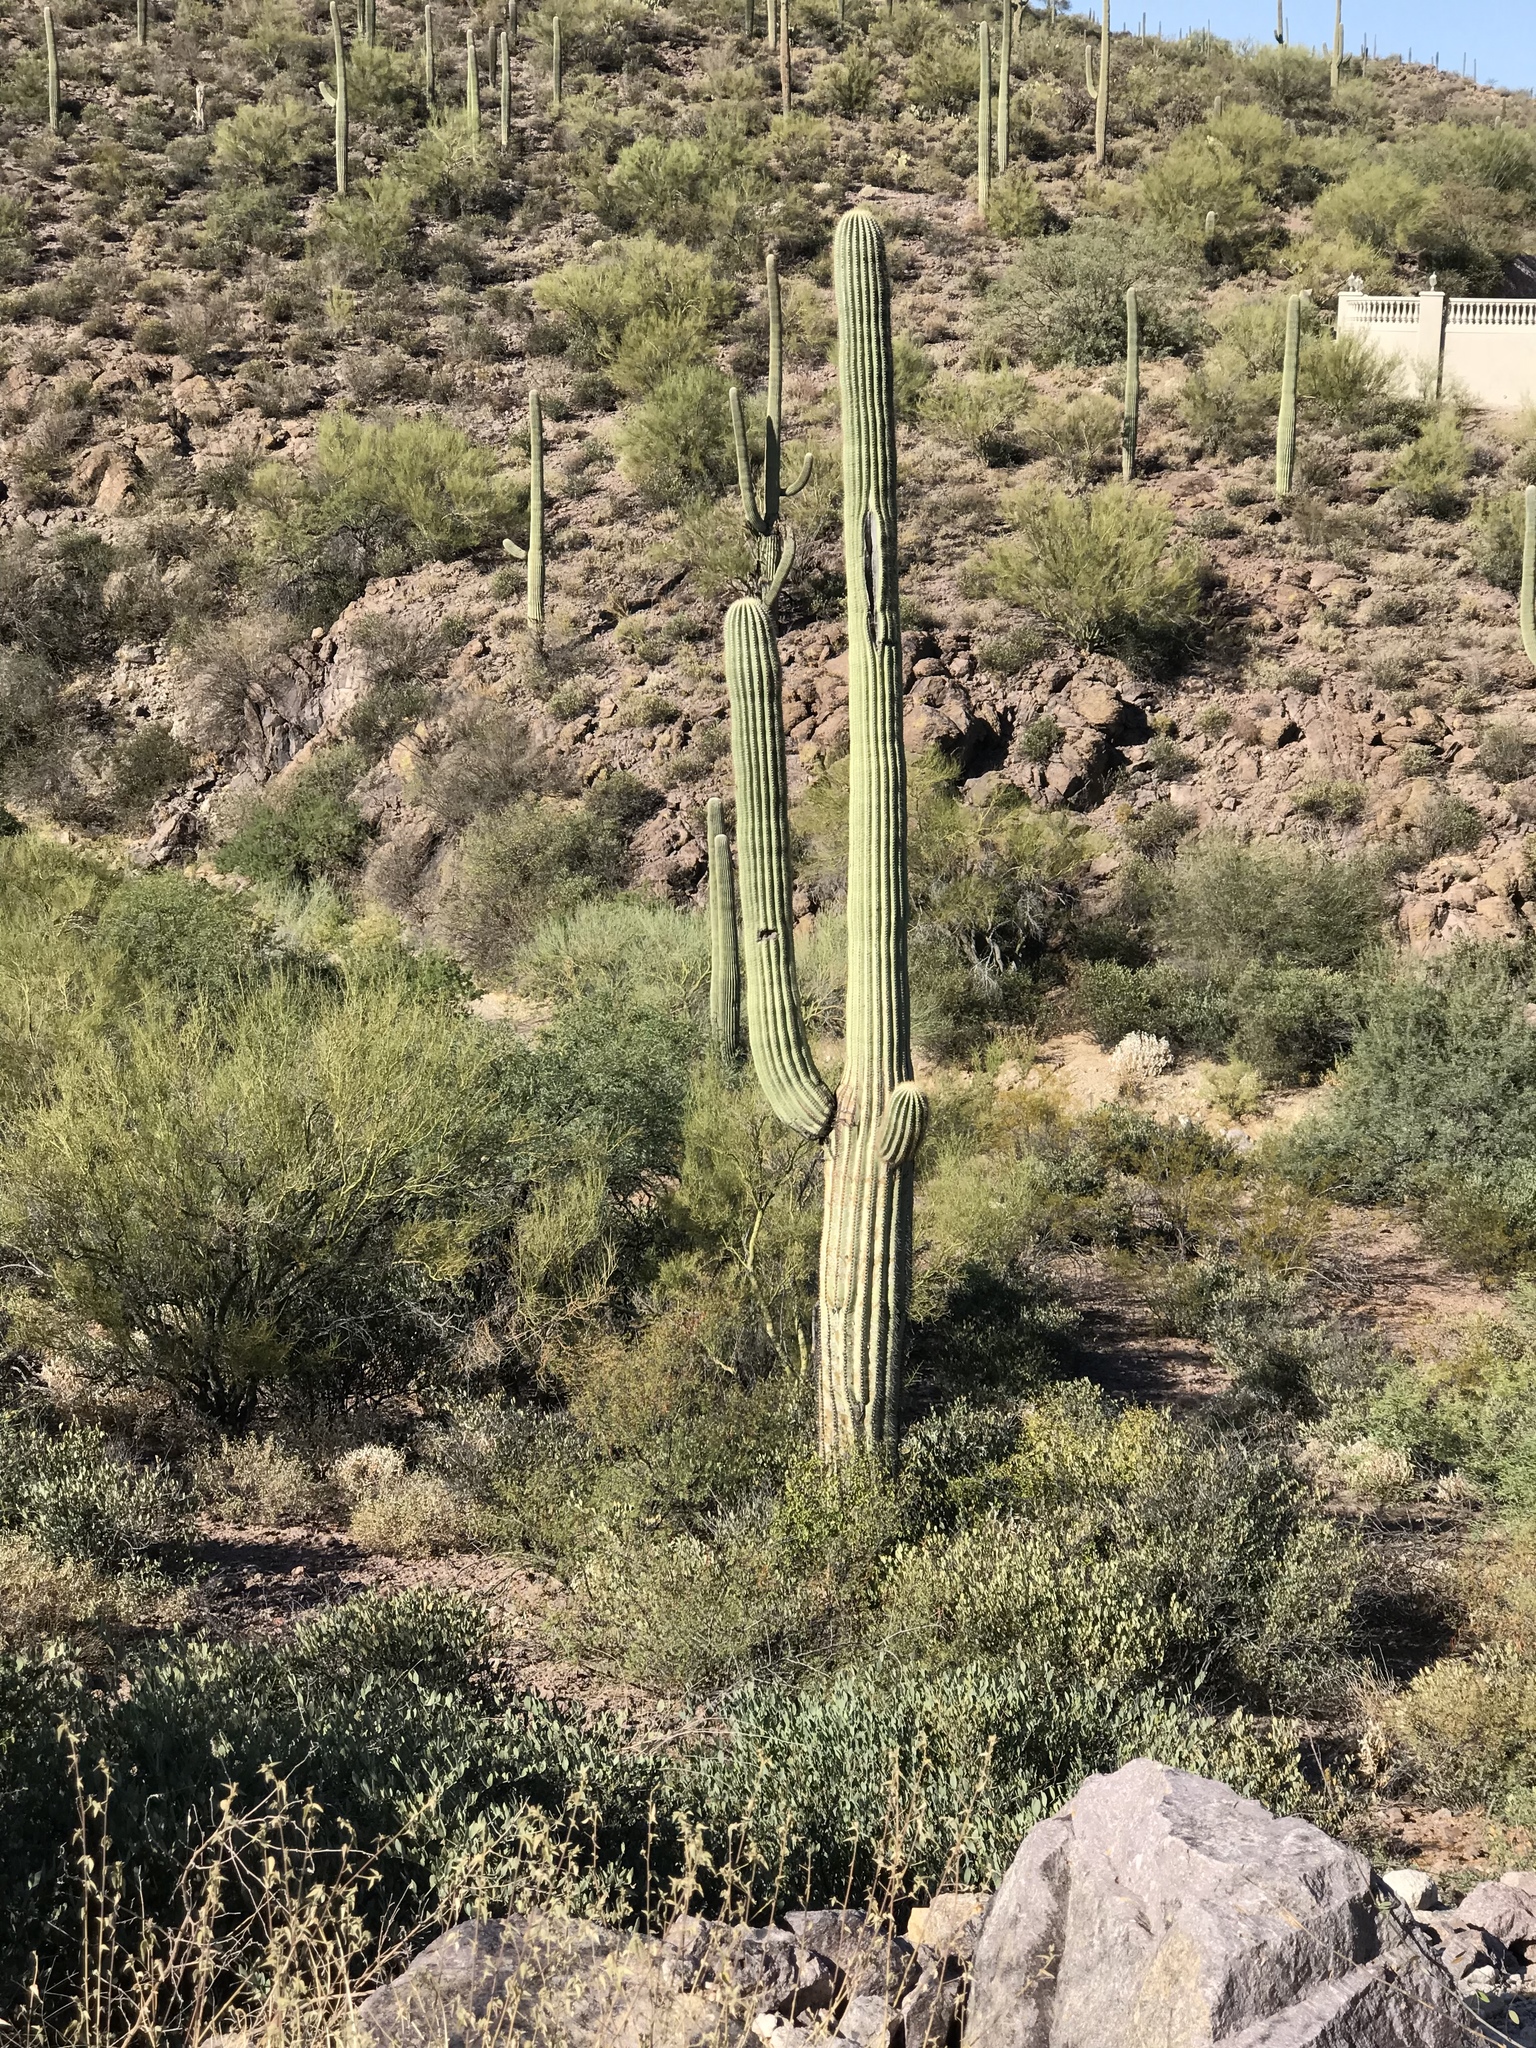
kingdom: Plantae
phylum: Tracheophyta
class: Magnoliopsida
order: Caryophyllales
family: Cactaceae
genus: Carnegiea
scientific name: Carnegiea gigantea
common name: Saguaro
